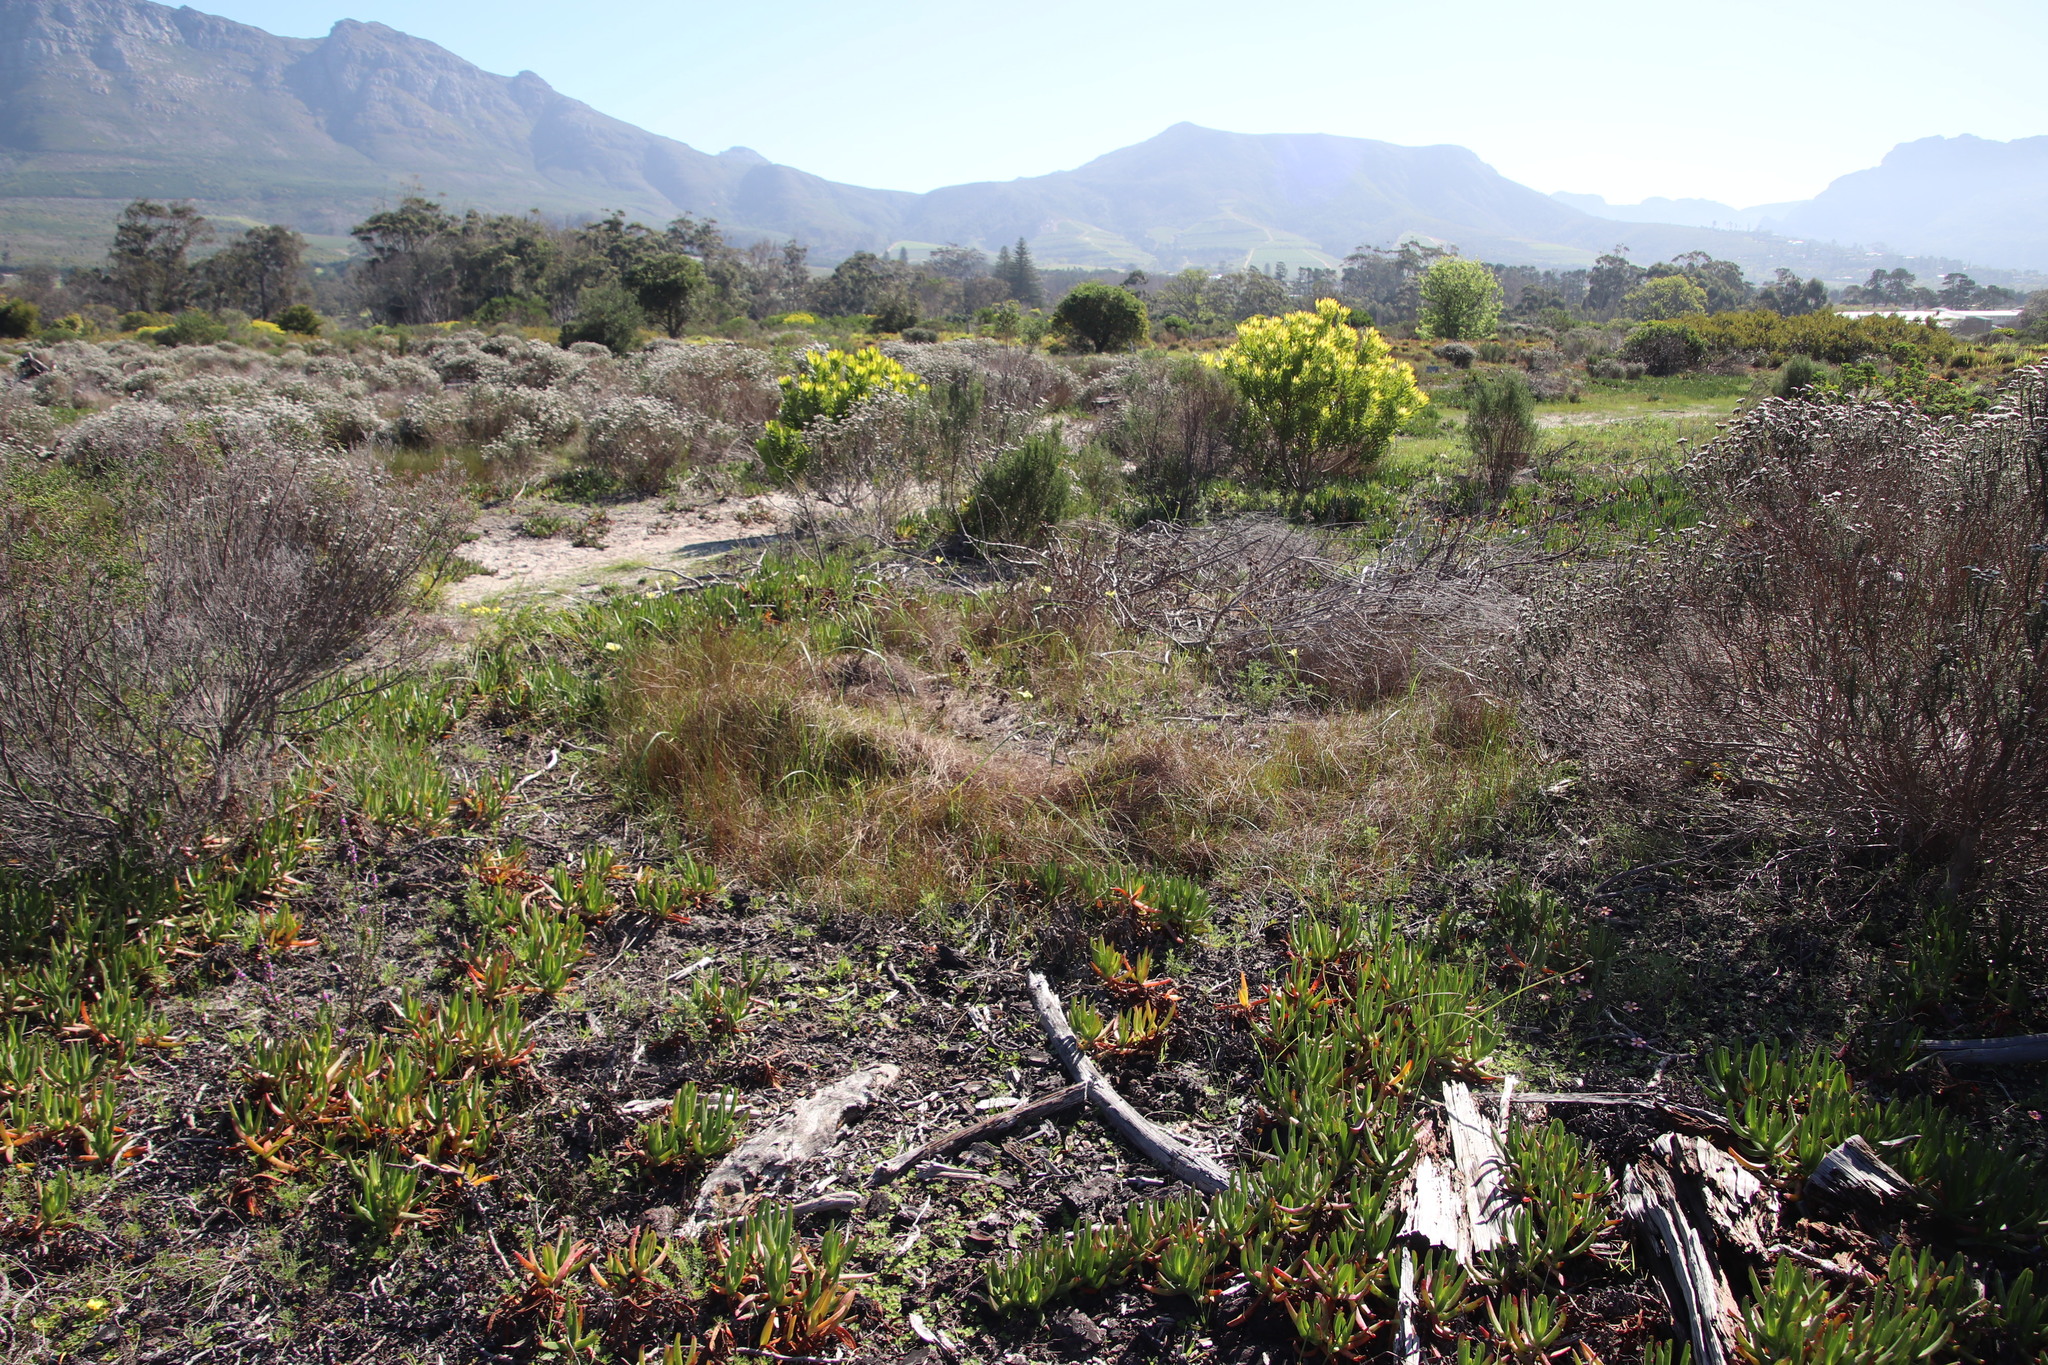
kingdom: Plantae
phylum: Tracheophyta
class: Liliopsida
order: Poales
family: Cyperaceae
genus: Ficinia
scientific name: Ficinia indica
